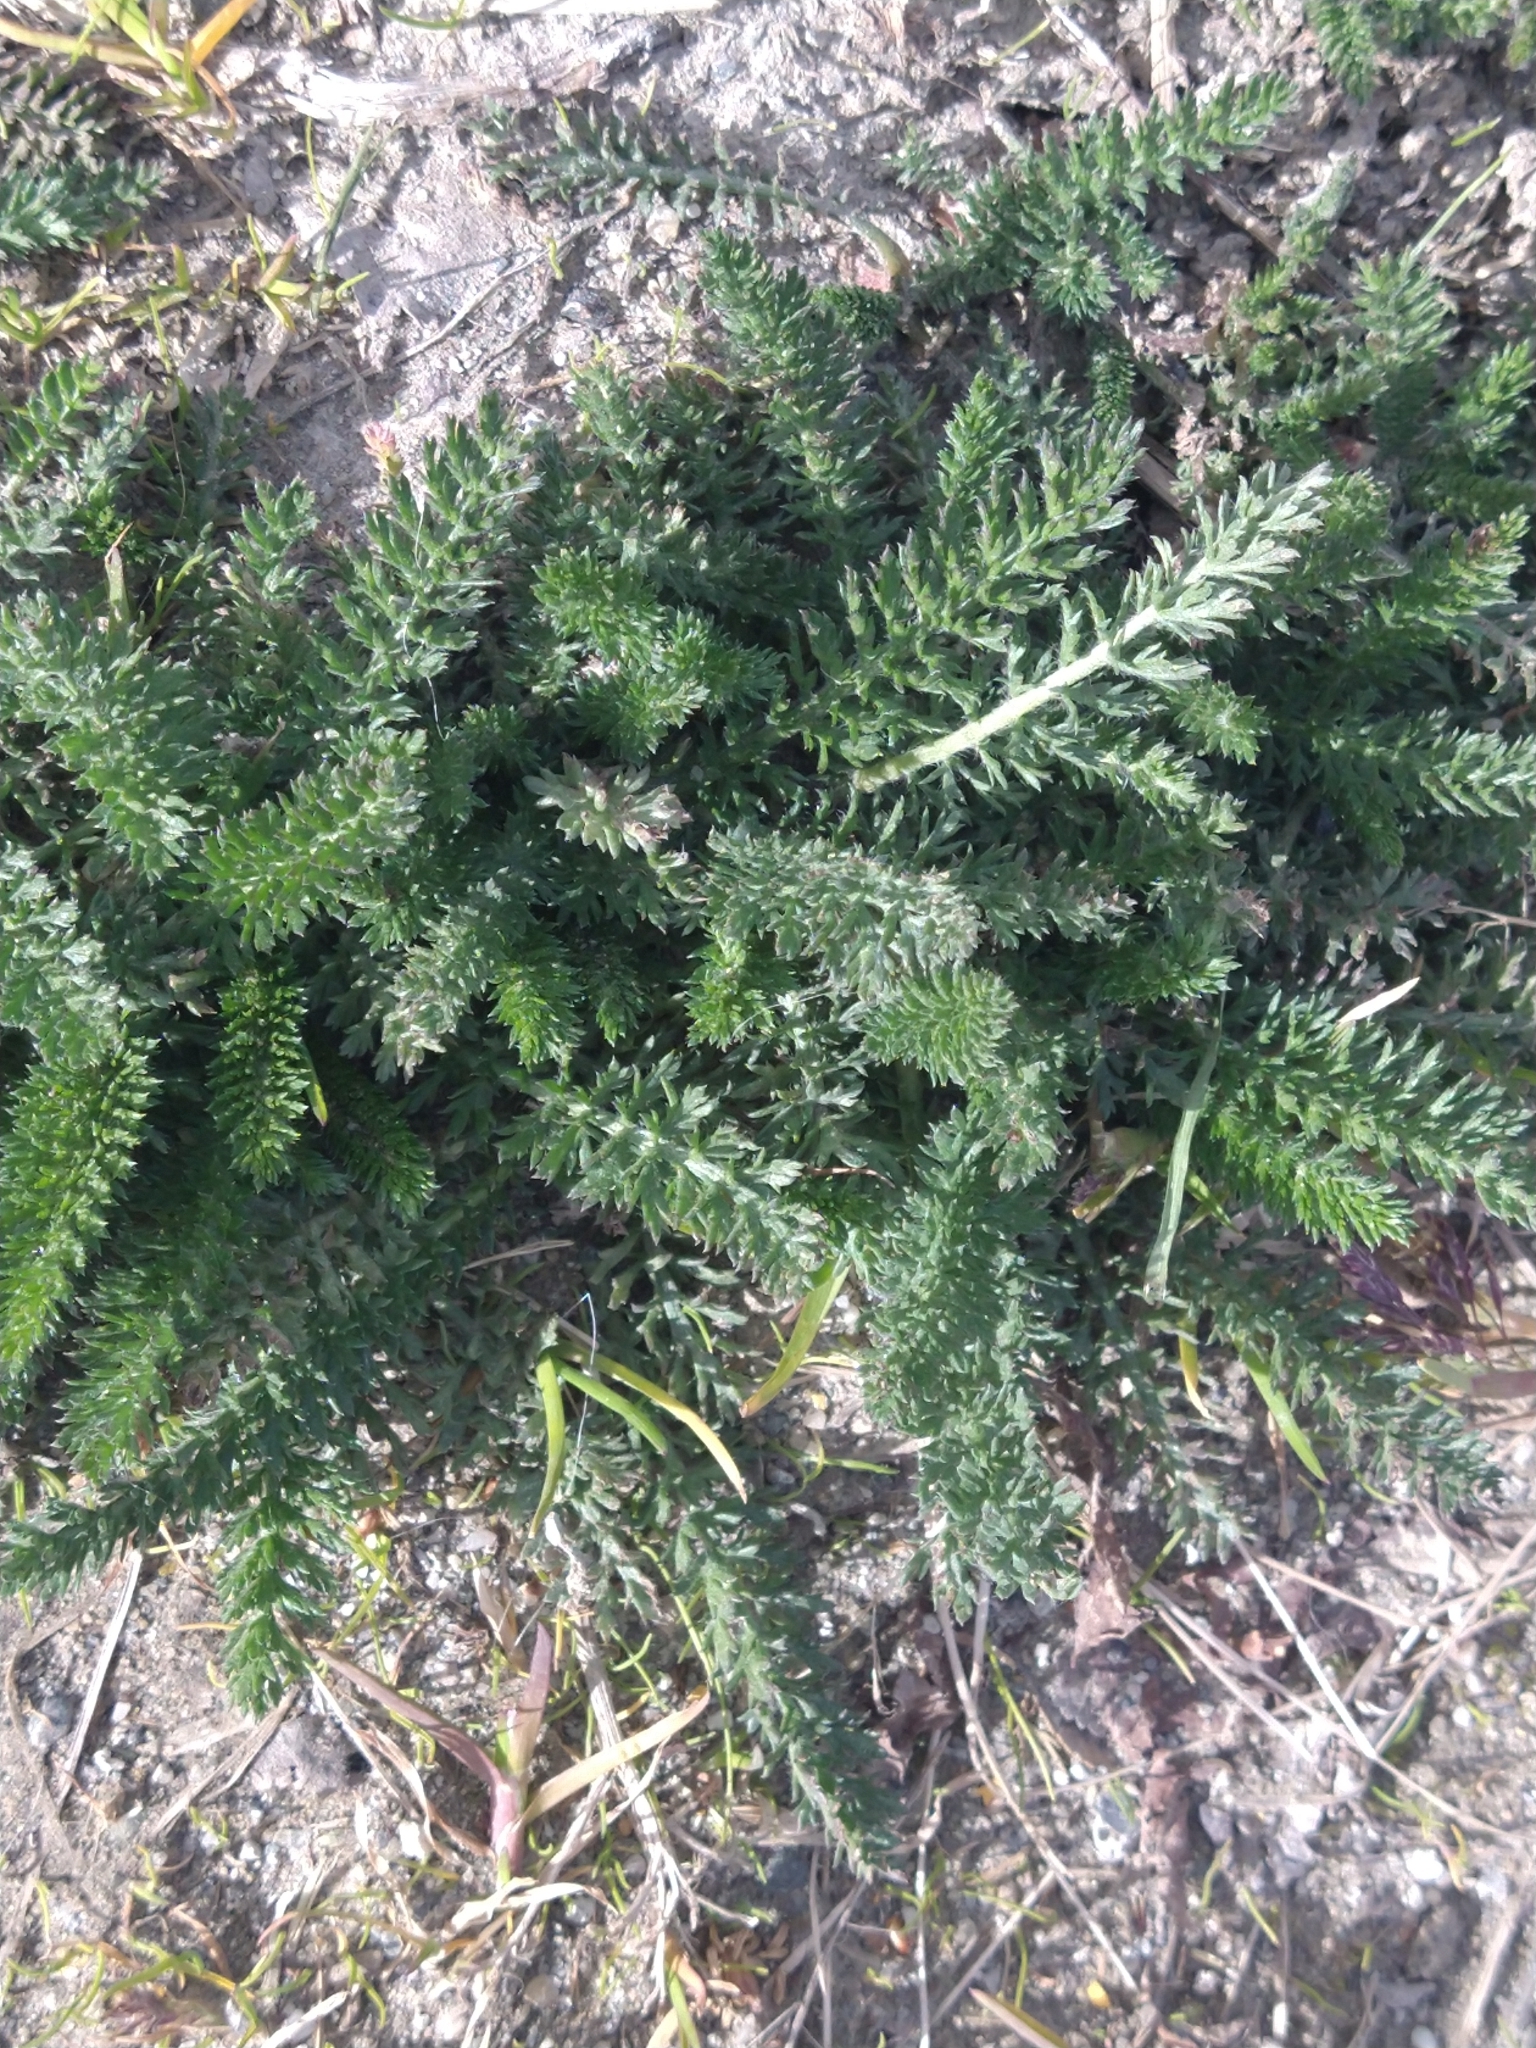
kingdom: Plantae
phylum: Tracheophyta
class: Magnoliopsida
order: Asterales
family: Asteraceae
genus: Achillea
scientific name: Achillea millefolium
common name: Yarrow
